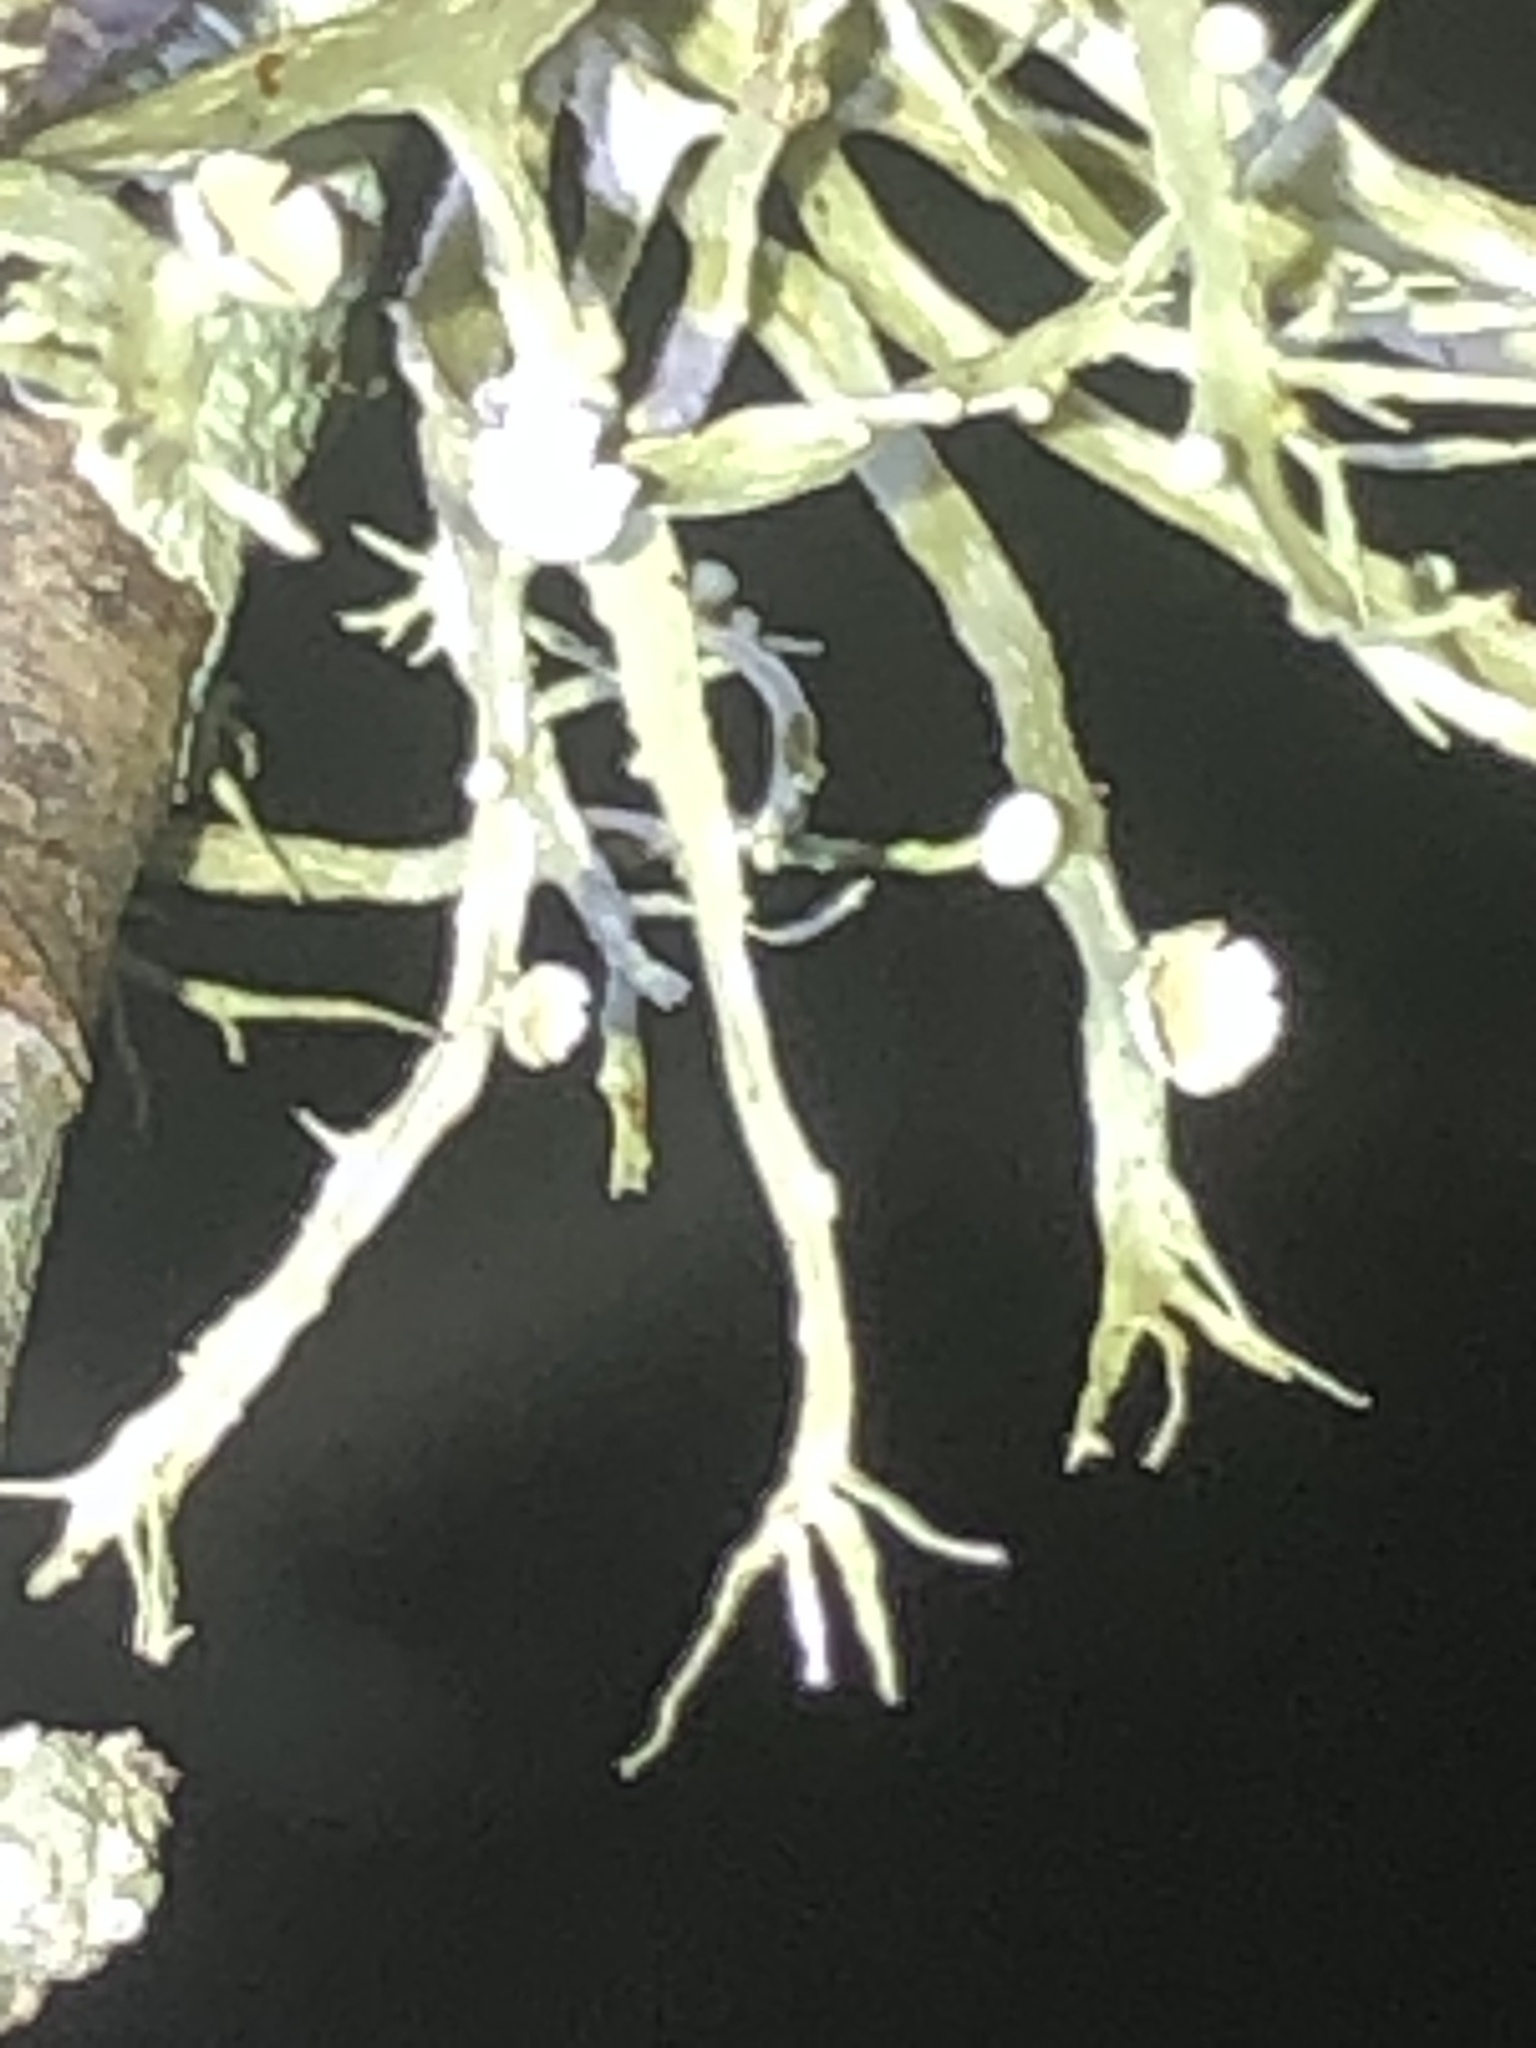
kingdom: Fungi
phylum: Ascomycota
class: Lecanoromycetes
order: Lecanorales
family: Ramalinaceae
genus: Ramalina
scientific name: Ramalina stenospora
